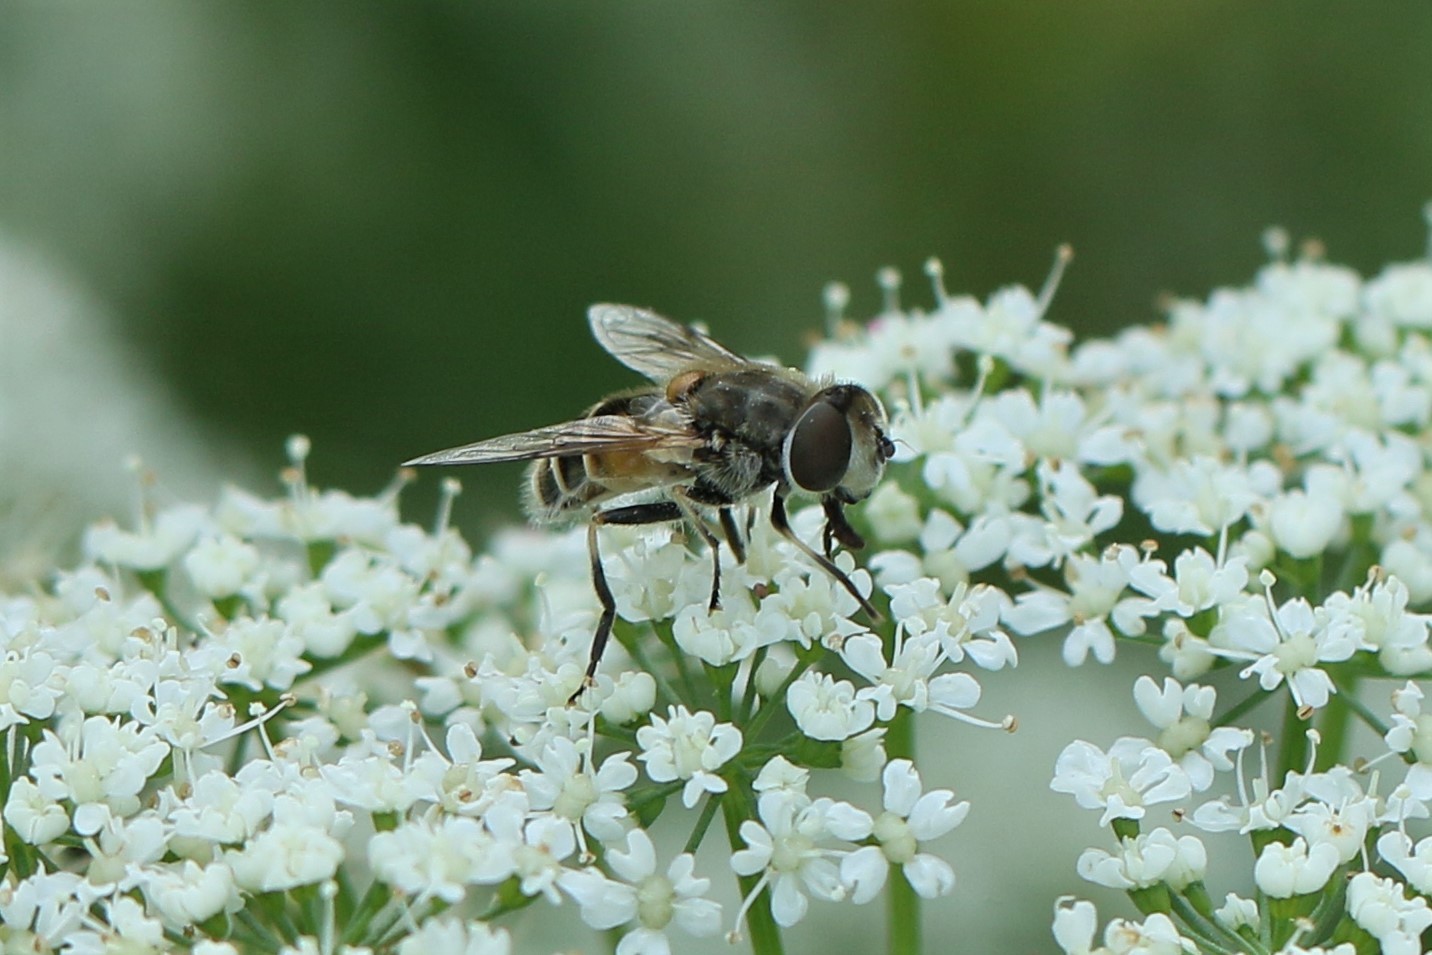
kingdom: Animalia
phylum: Arthropoda
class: Insecta
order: Diptera
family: Syrphidae
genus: Eristalis
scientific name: Eristalis arbustorum
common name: Hover fly
